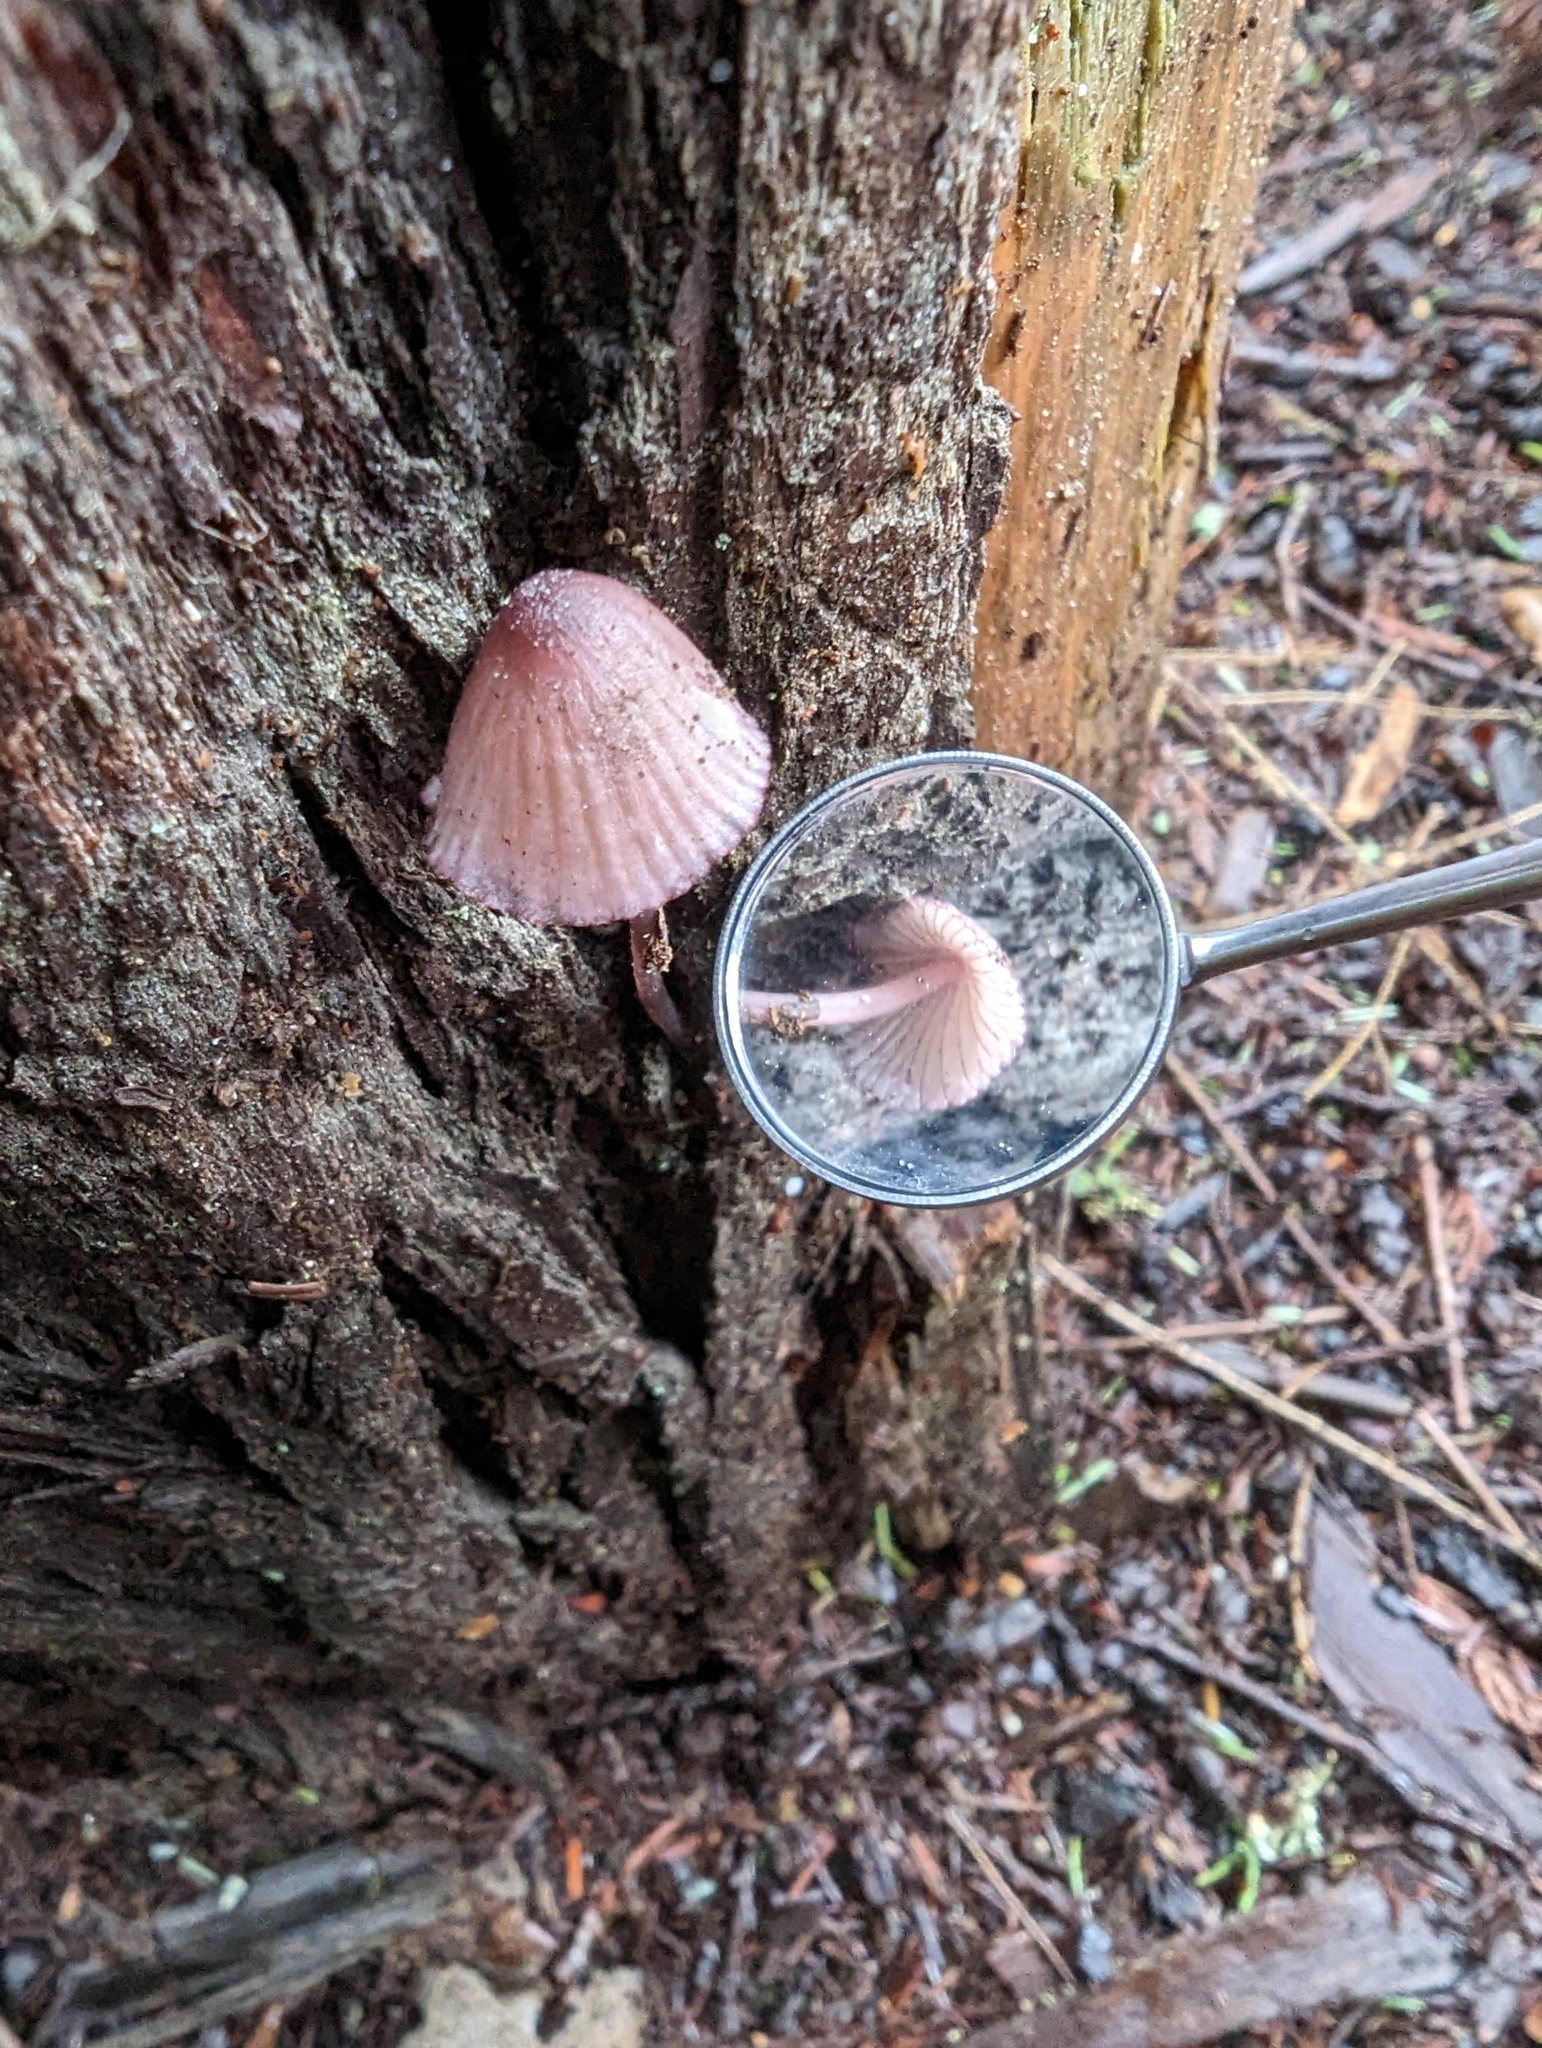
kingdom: Fungi
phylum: Basidiomycota
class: Agaricomycetes
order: Agaricales
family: Mycenaceae
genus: Mycena
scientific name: Mycena purpureofusca
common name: Purple edge bonnet
